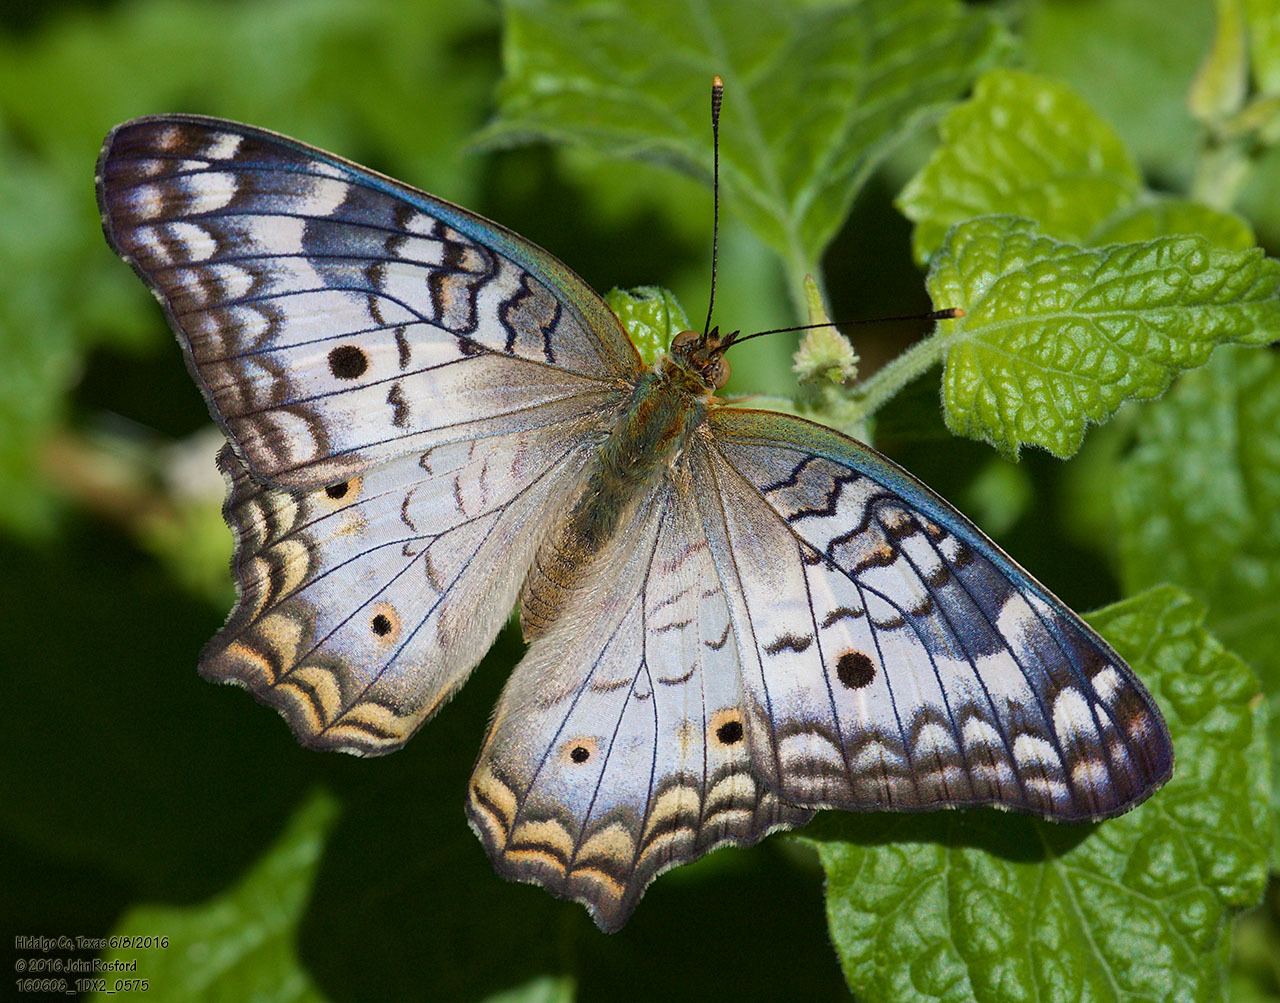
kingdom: Animalia
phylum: Arthropoda
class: Insecta
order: Lepidoptera
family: Nymphalidae
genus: Anartia
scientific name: Anartia jatrophae
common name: White peacock
